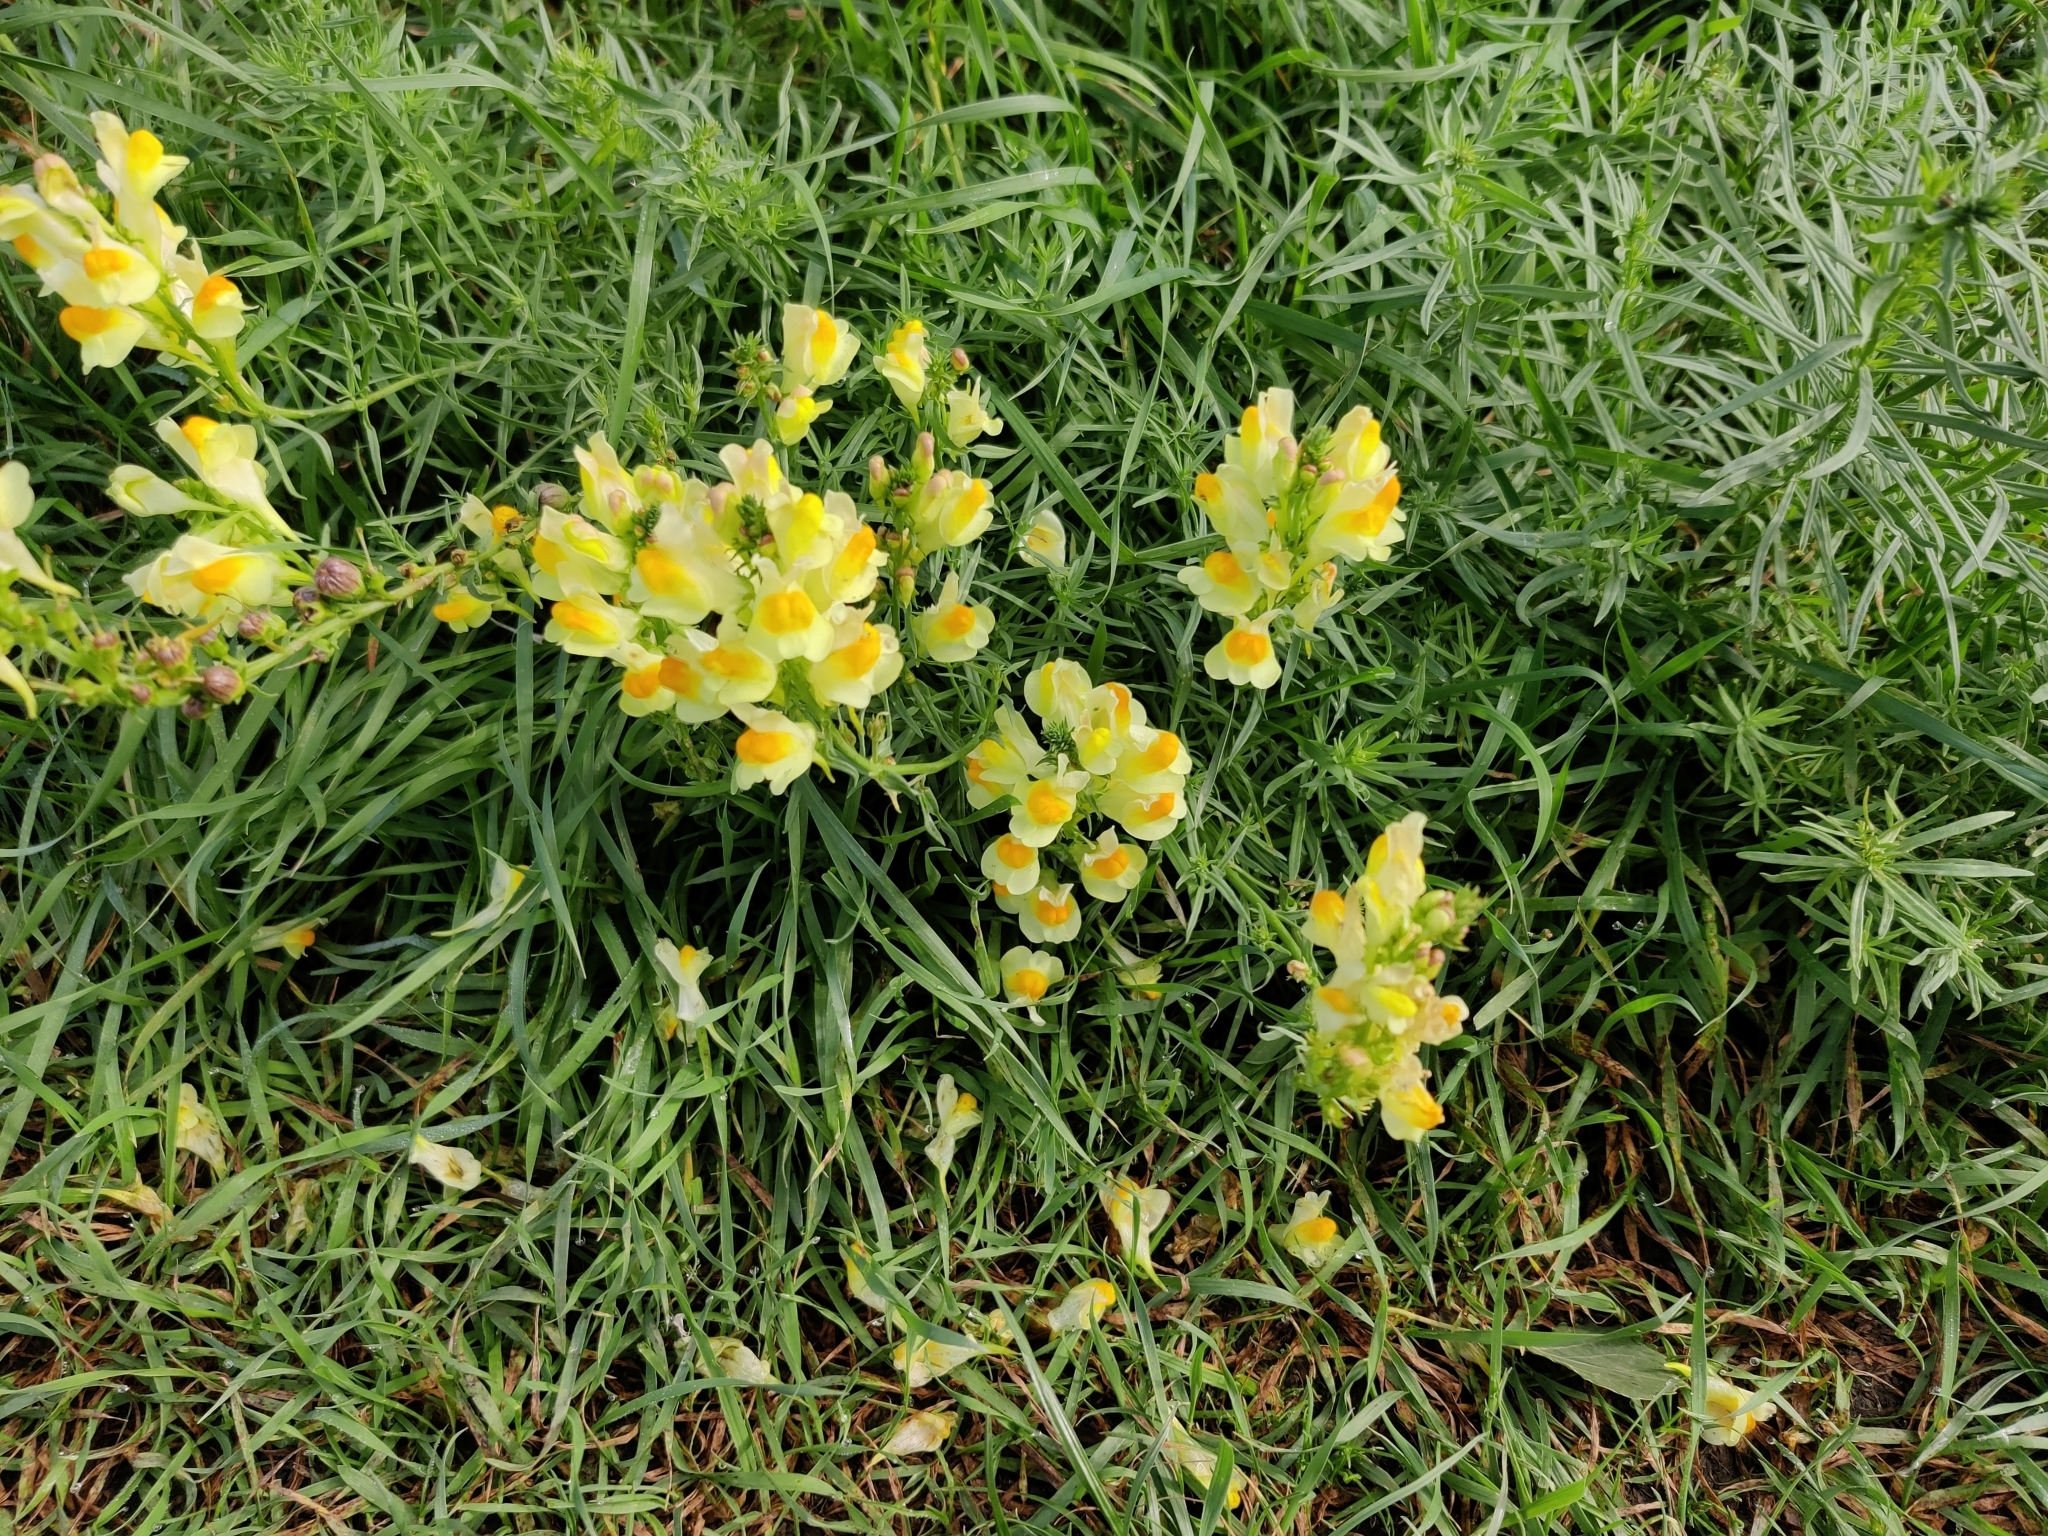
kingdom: Plantae
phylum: Tracheophyta
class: Magnoliopsida
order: Lamiales
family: Plantaginaceae
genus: Linaria
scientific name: Linaria vulgaris
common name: Butter and eggs
